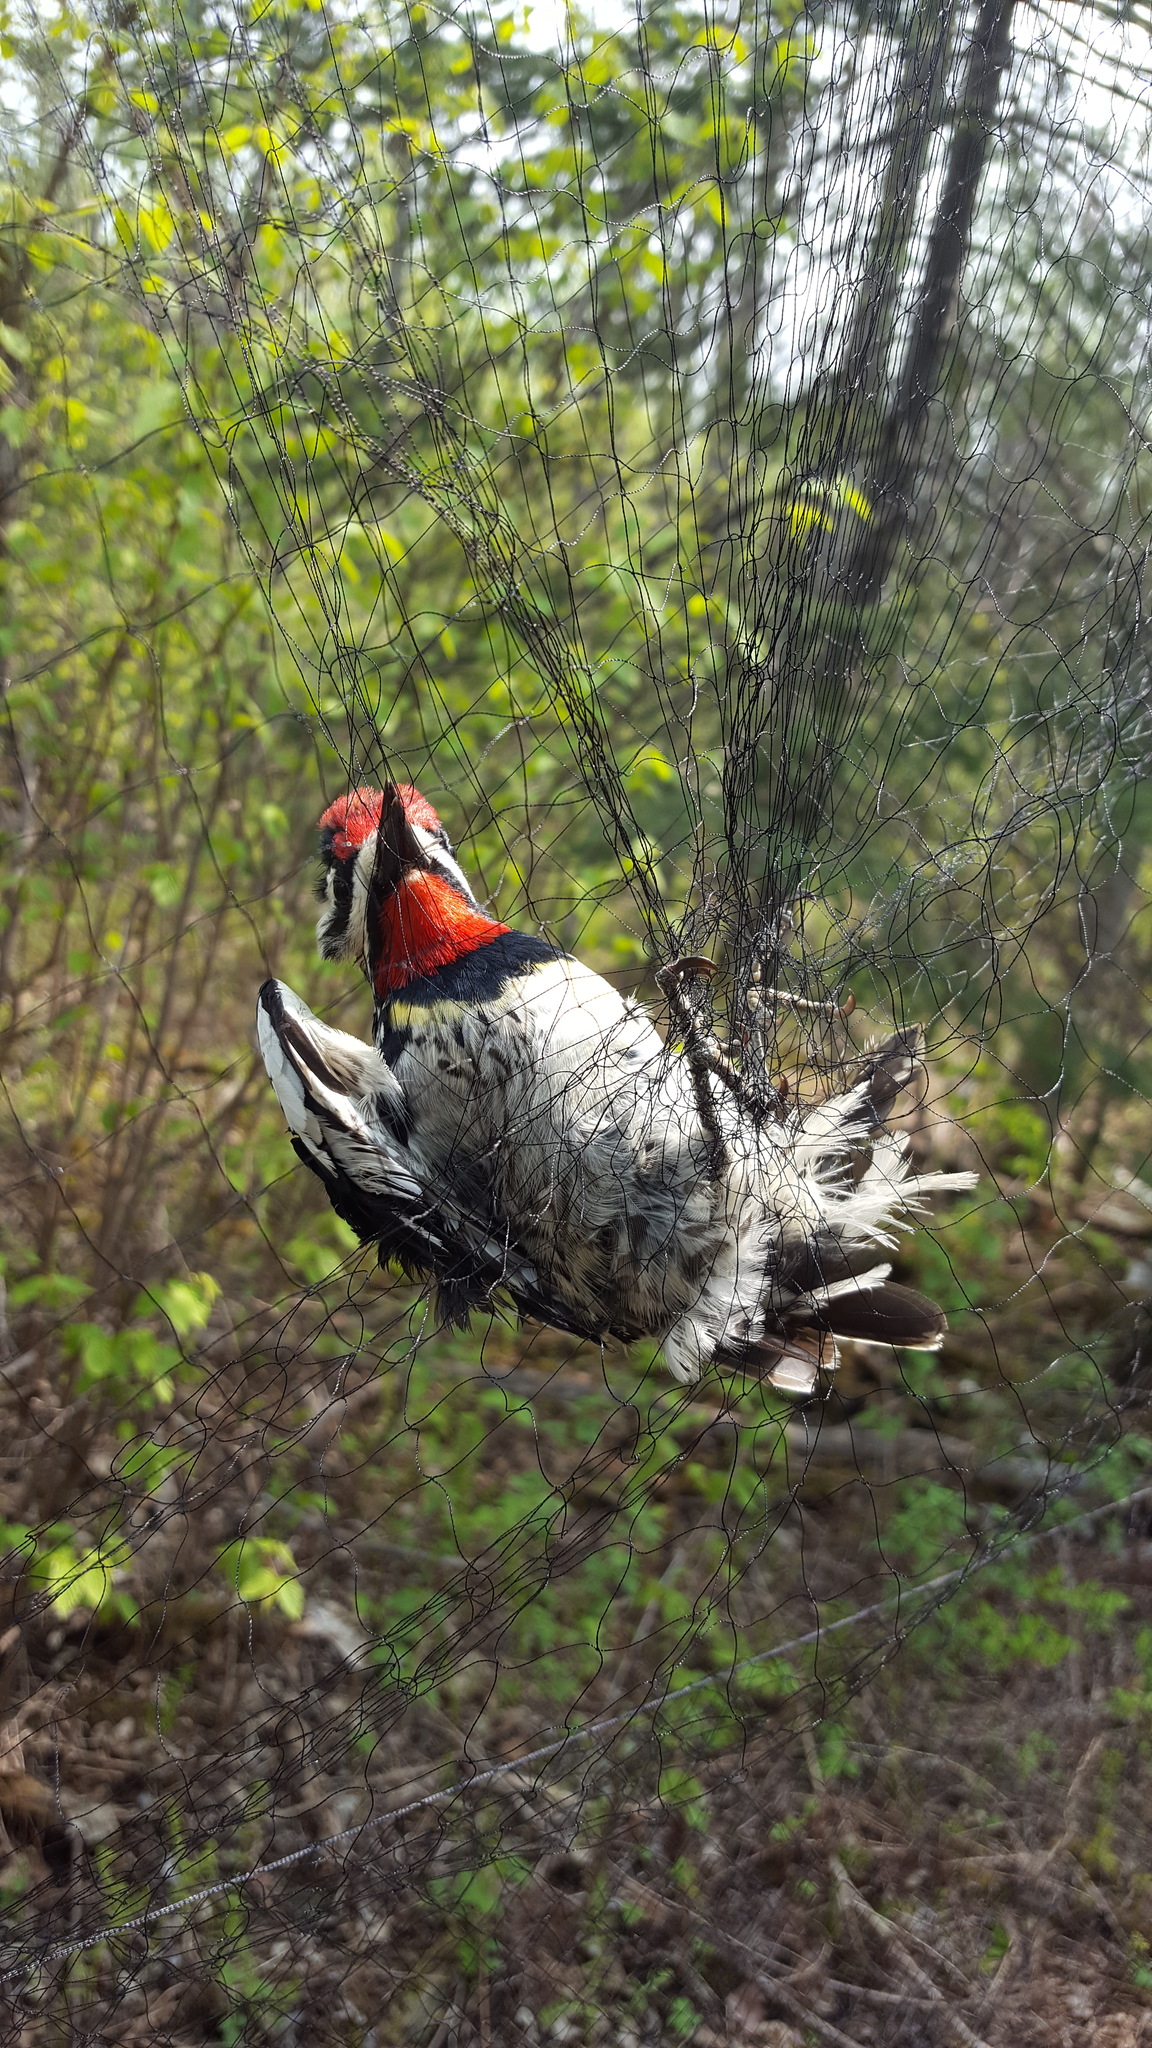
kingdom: Animalia
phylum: Chordata
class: Aves
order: Piciformes
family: Picidae
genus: Sphyrapicus
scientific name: Sphyrapicus varius
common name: Yellow-bellied sapsucker
